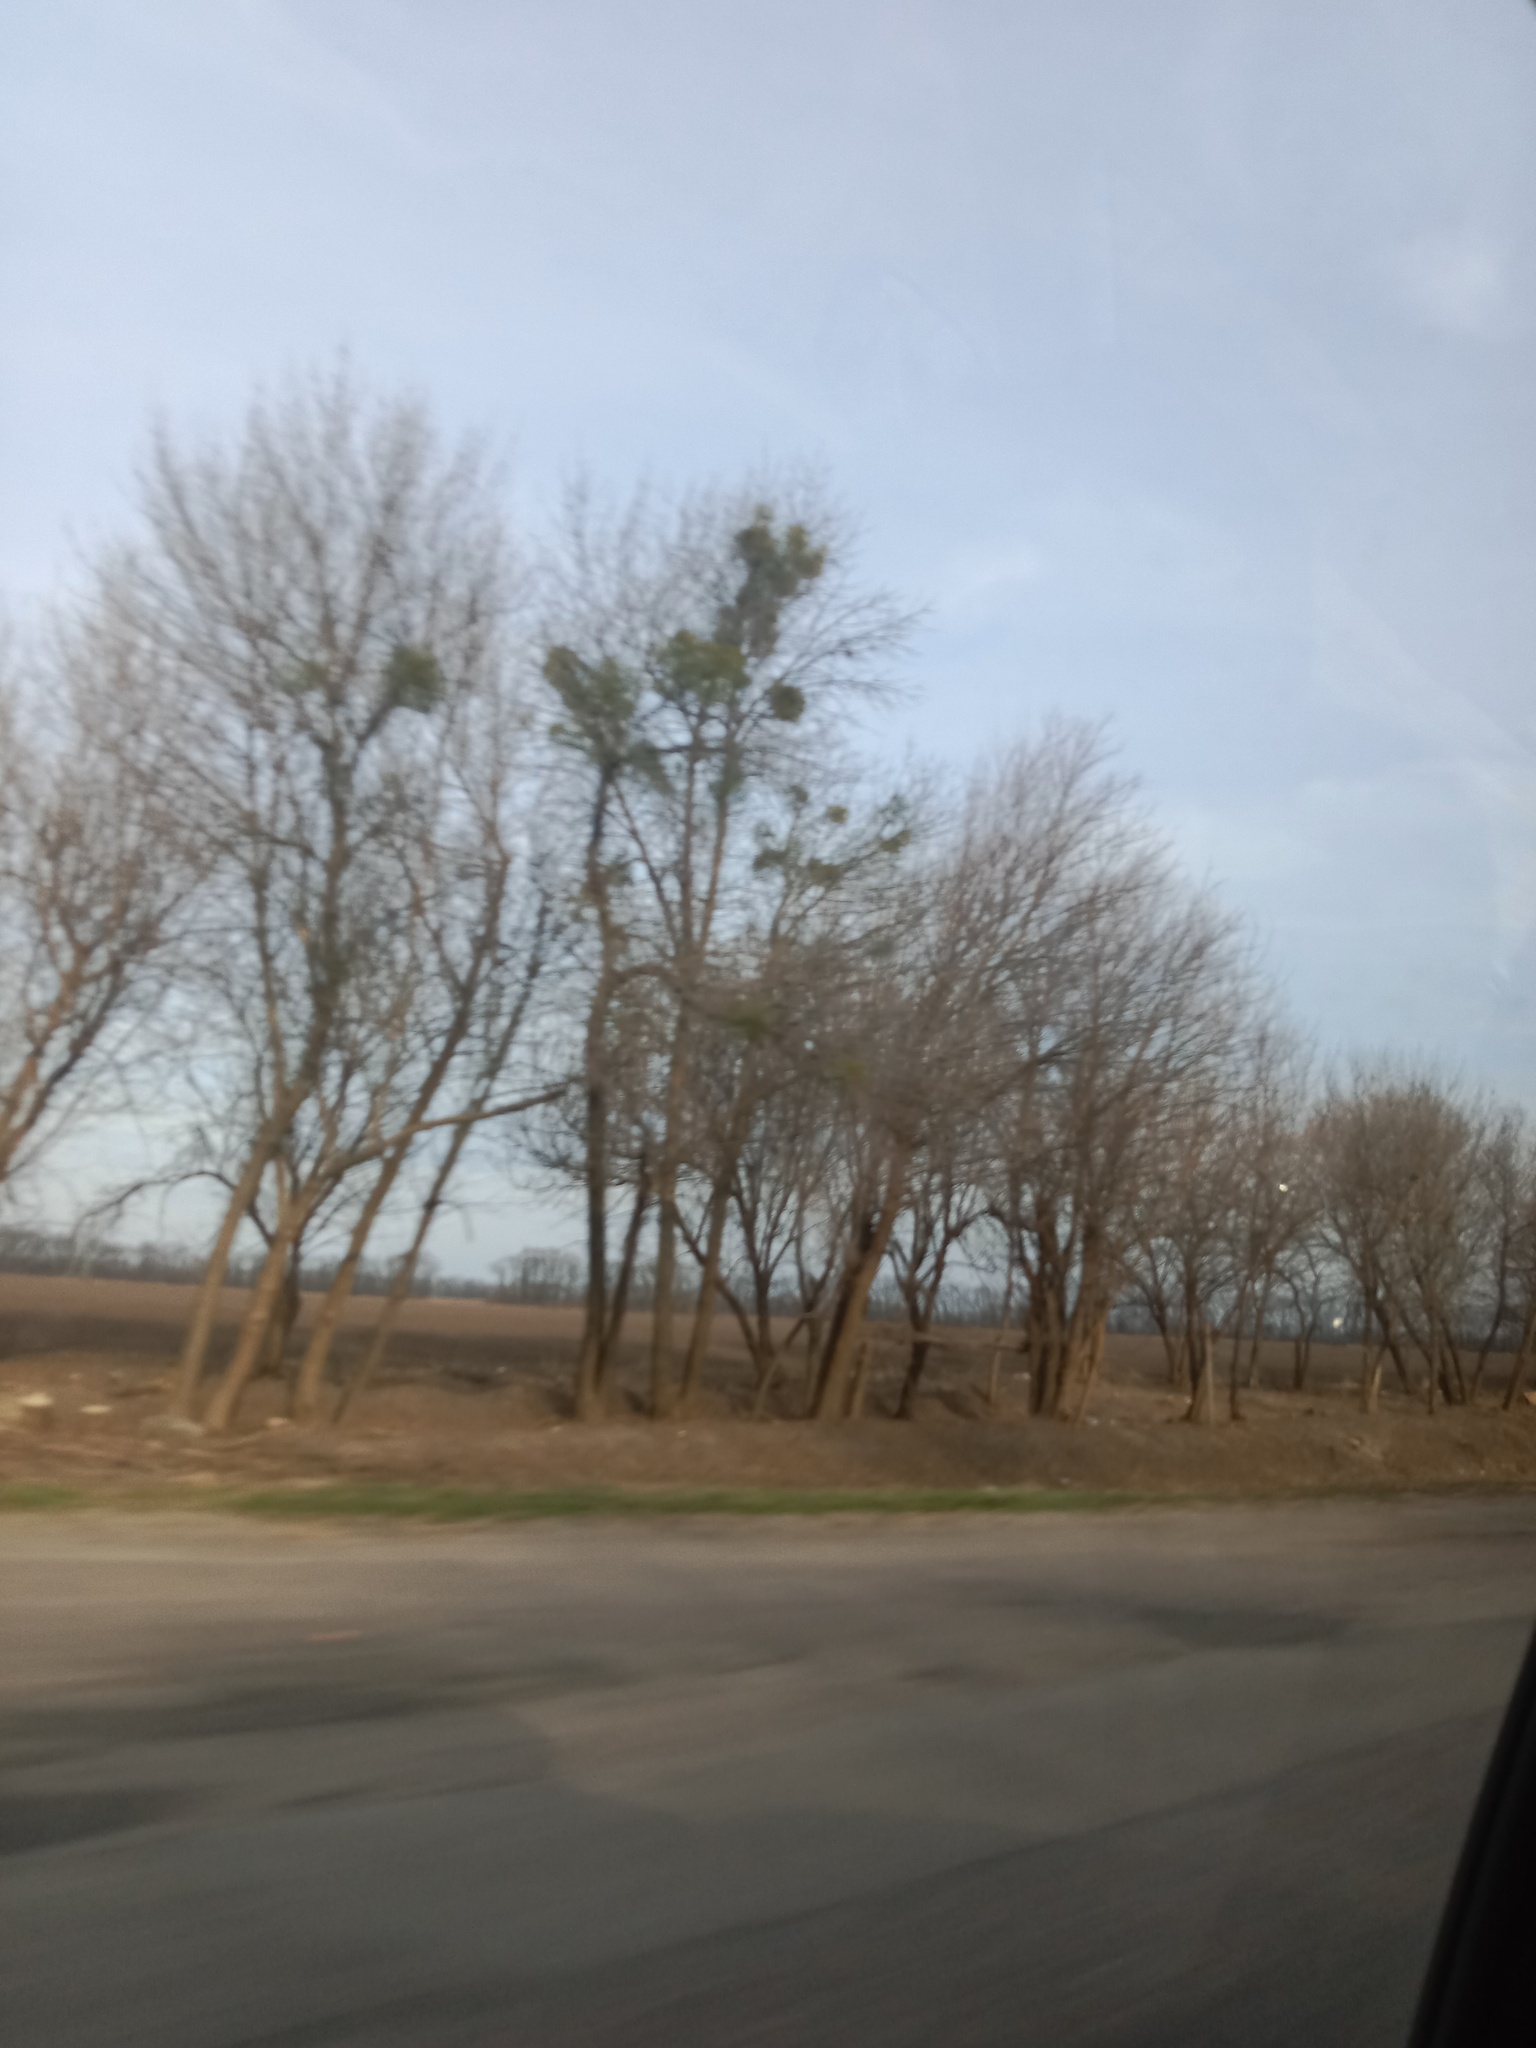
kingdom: Plantae
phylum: Tracheophyta
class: Magnoliopsida
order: Santalales
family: Viscaceae
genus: Viscum
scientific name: Viscum album
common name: Mistletoe
